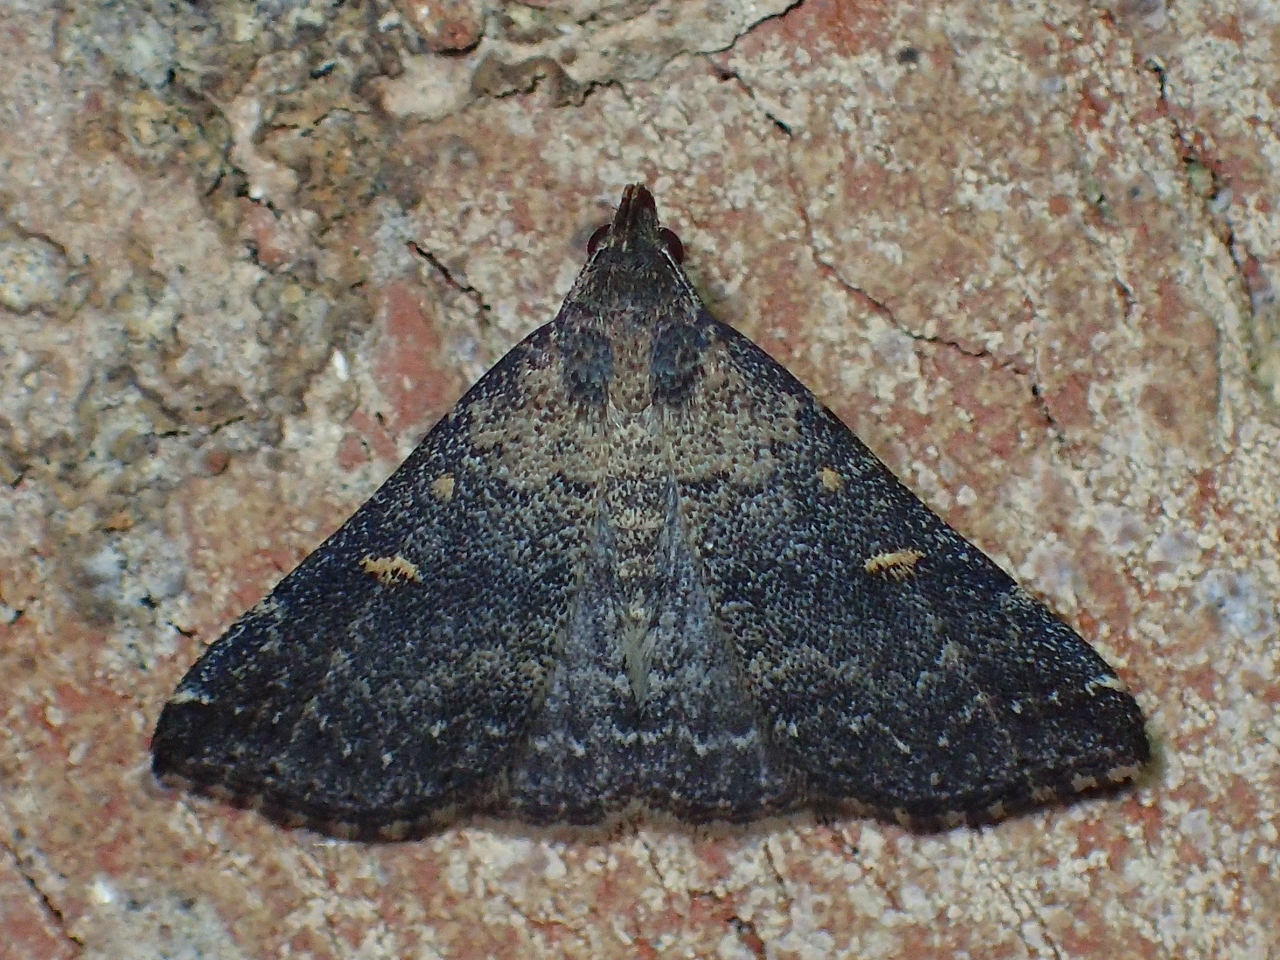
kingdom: Animalia
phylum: Arthropoda
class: Insecta
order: Lepidoptera
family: Erebidae
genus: Tetanolita
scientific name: Tetanolita mynesalis
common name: Smoky tetanolita moth
